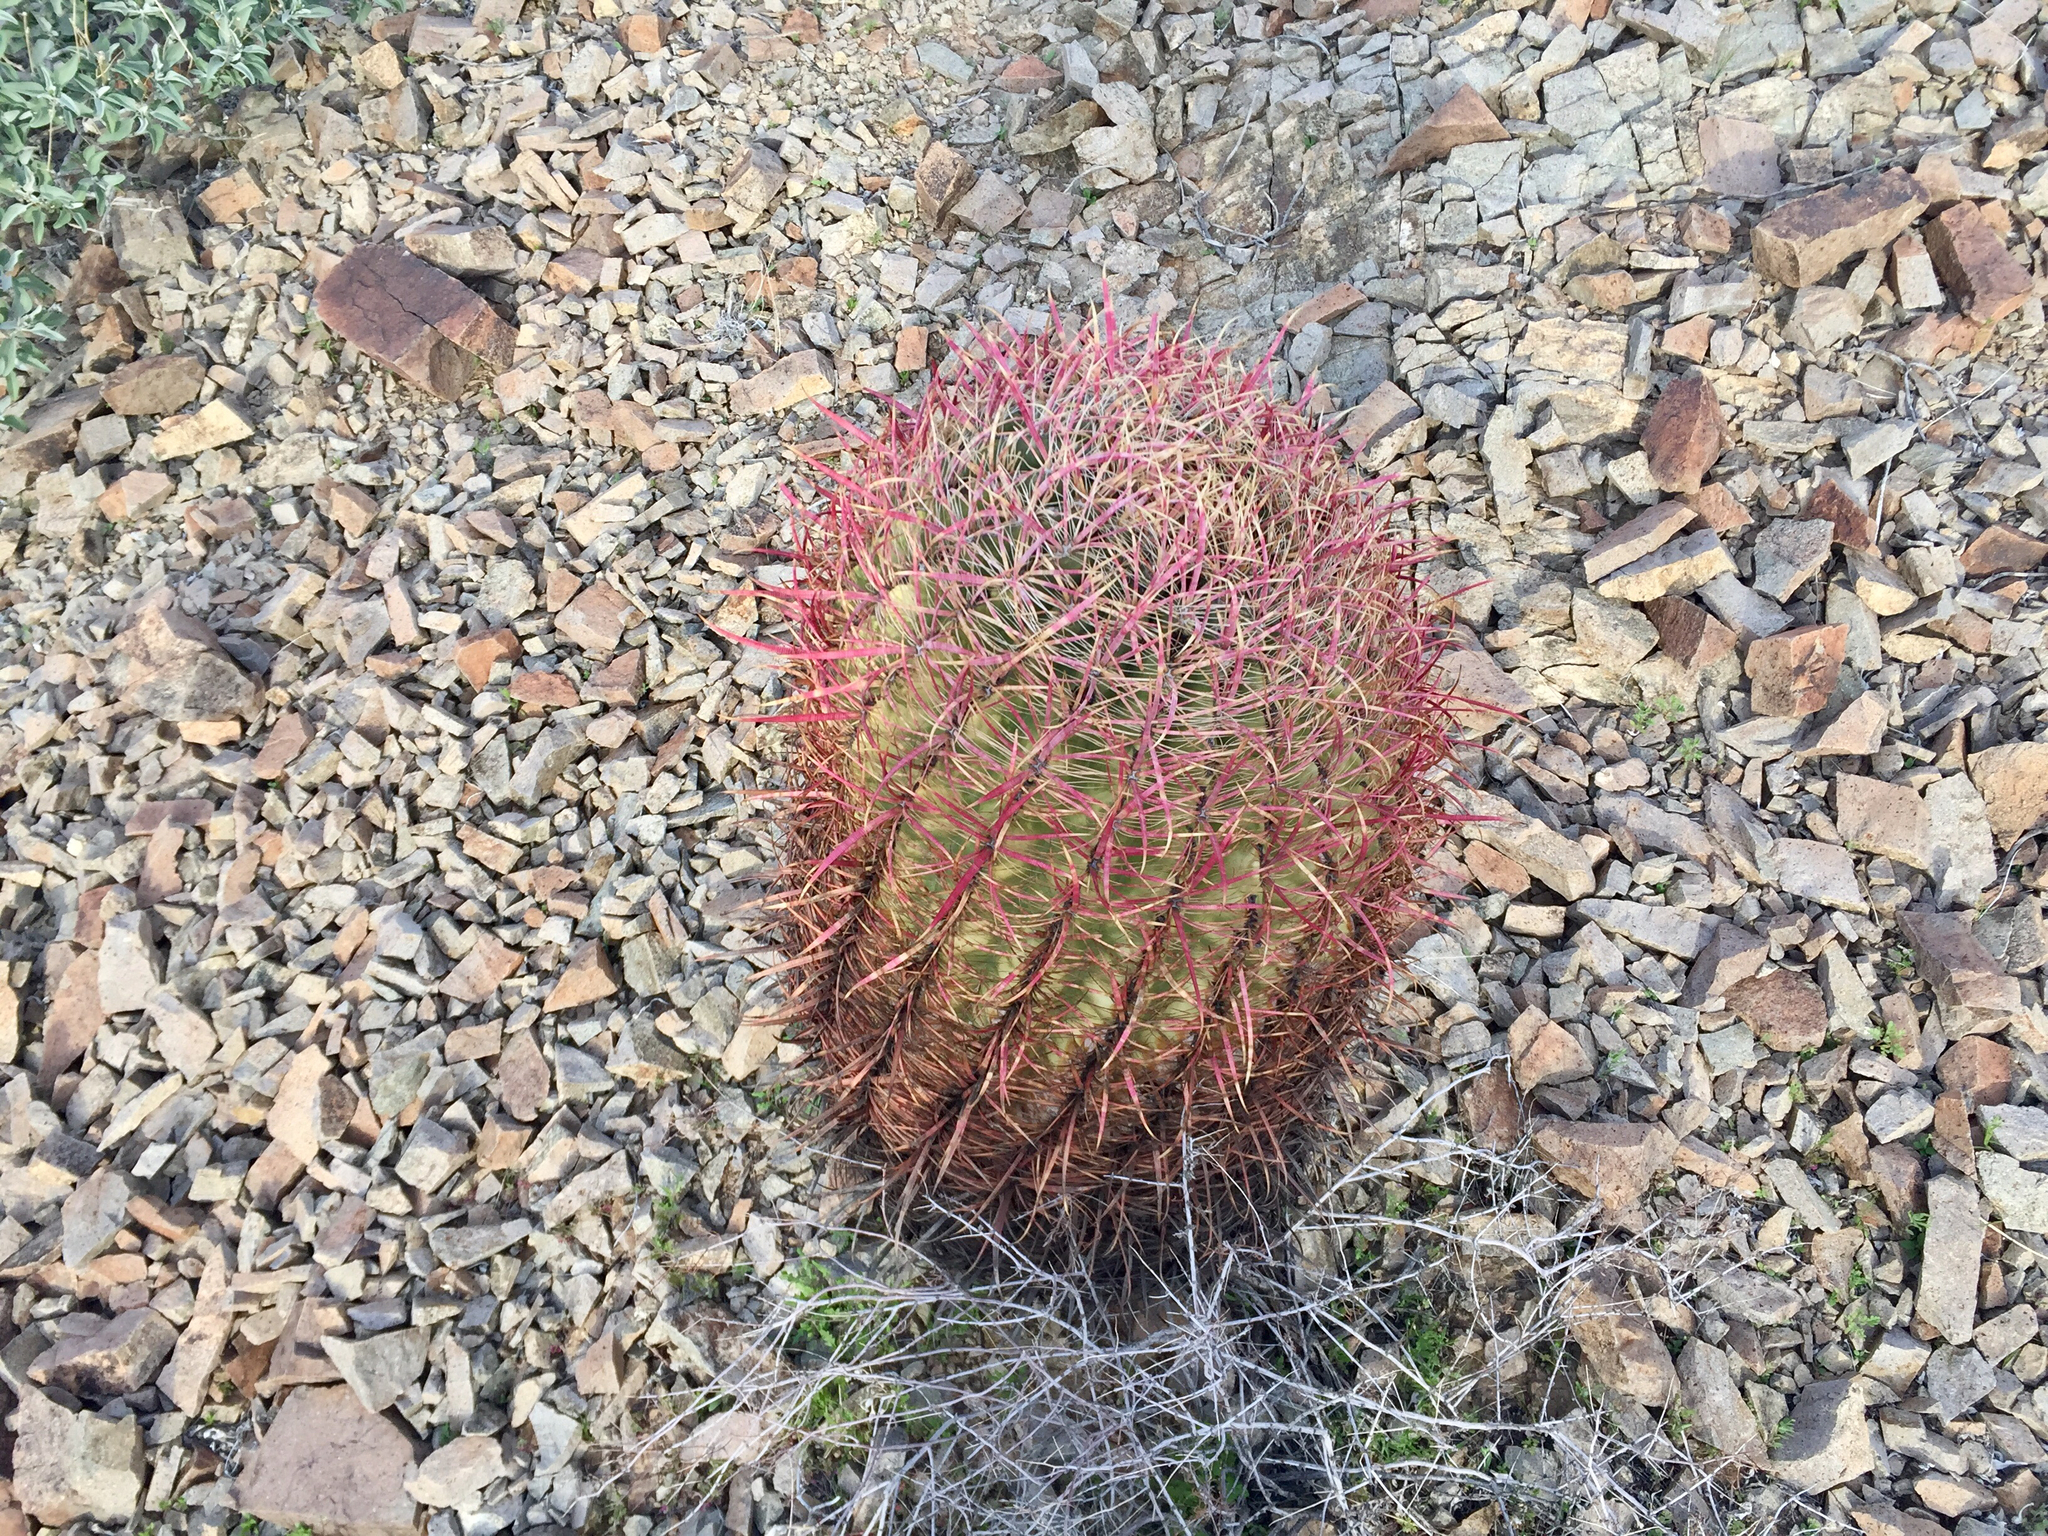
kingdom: Plantae
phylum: Tracheophyta
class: Magnoliopsida
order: Caryophyllales
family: Cactaceae
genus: Ferocactus
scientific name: Ferocactus cylindraceus
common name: California barrel cactus
